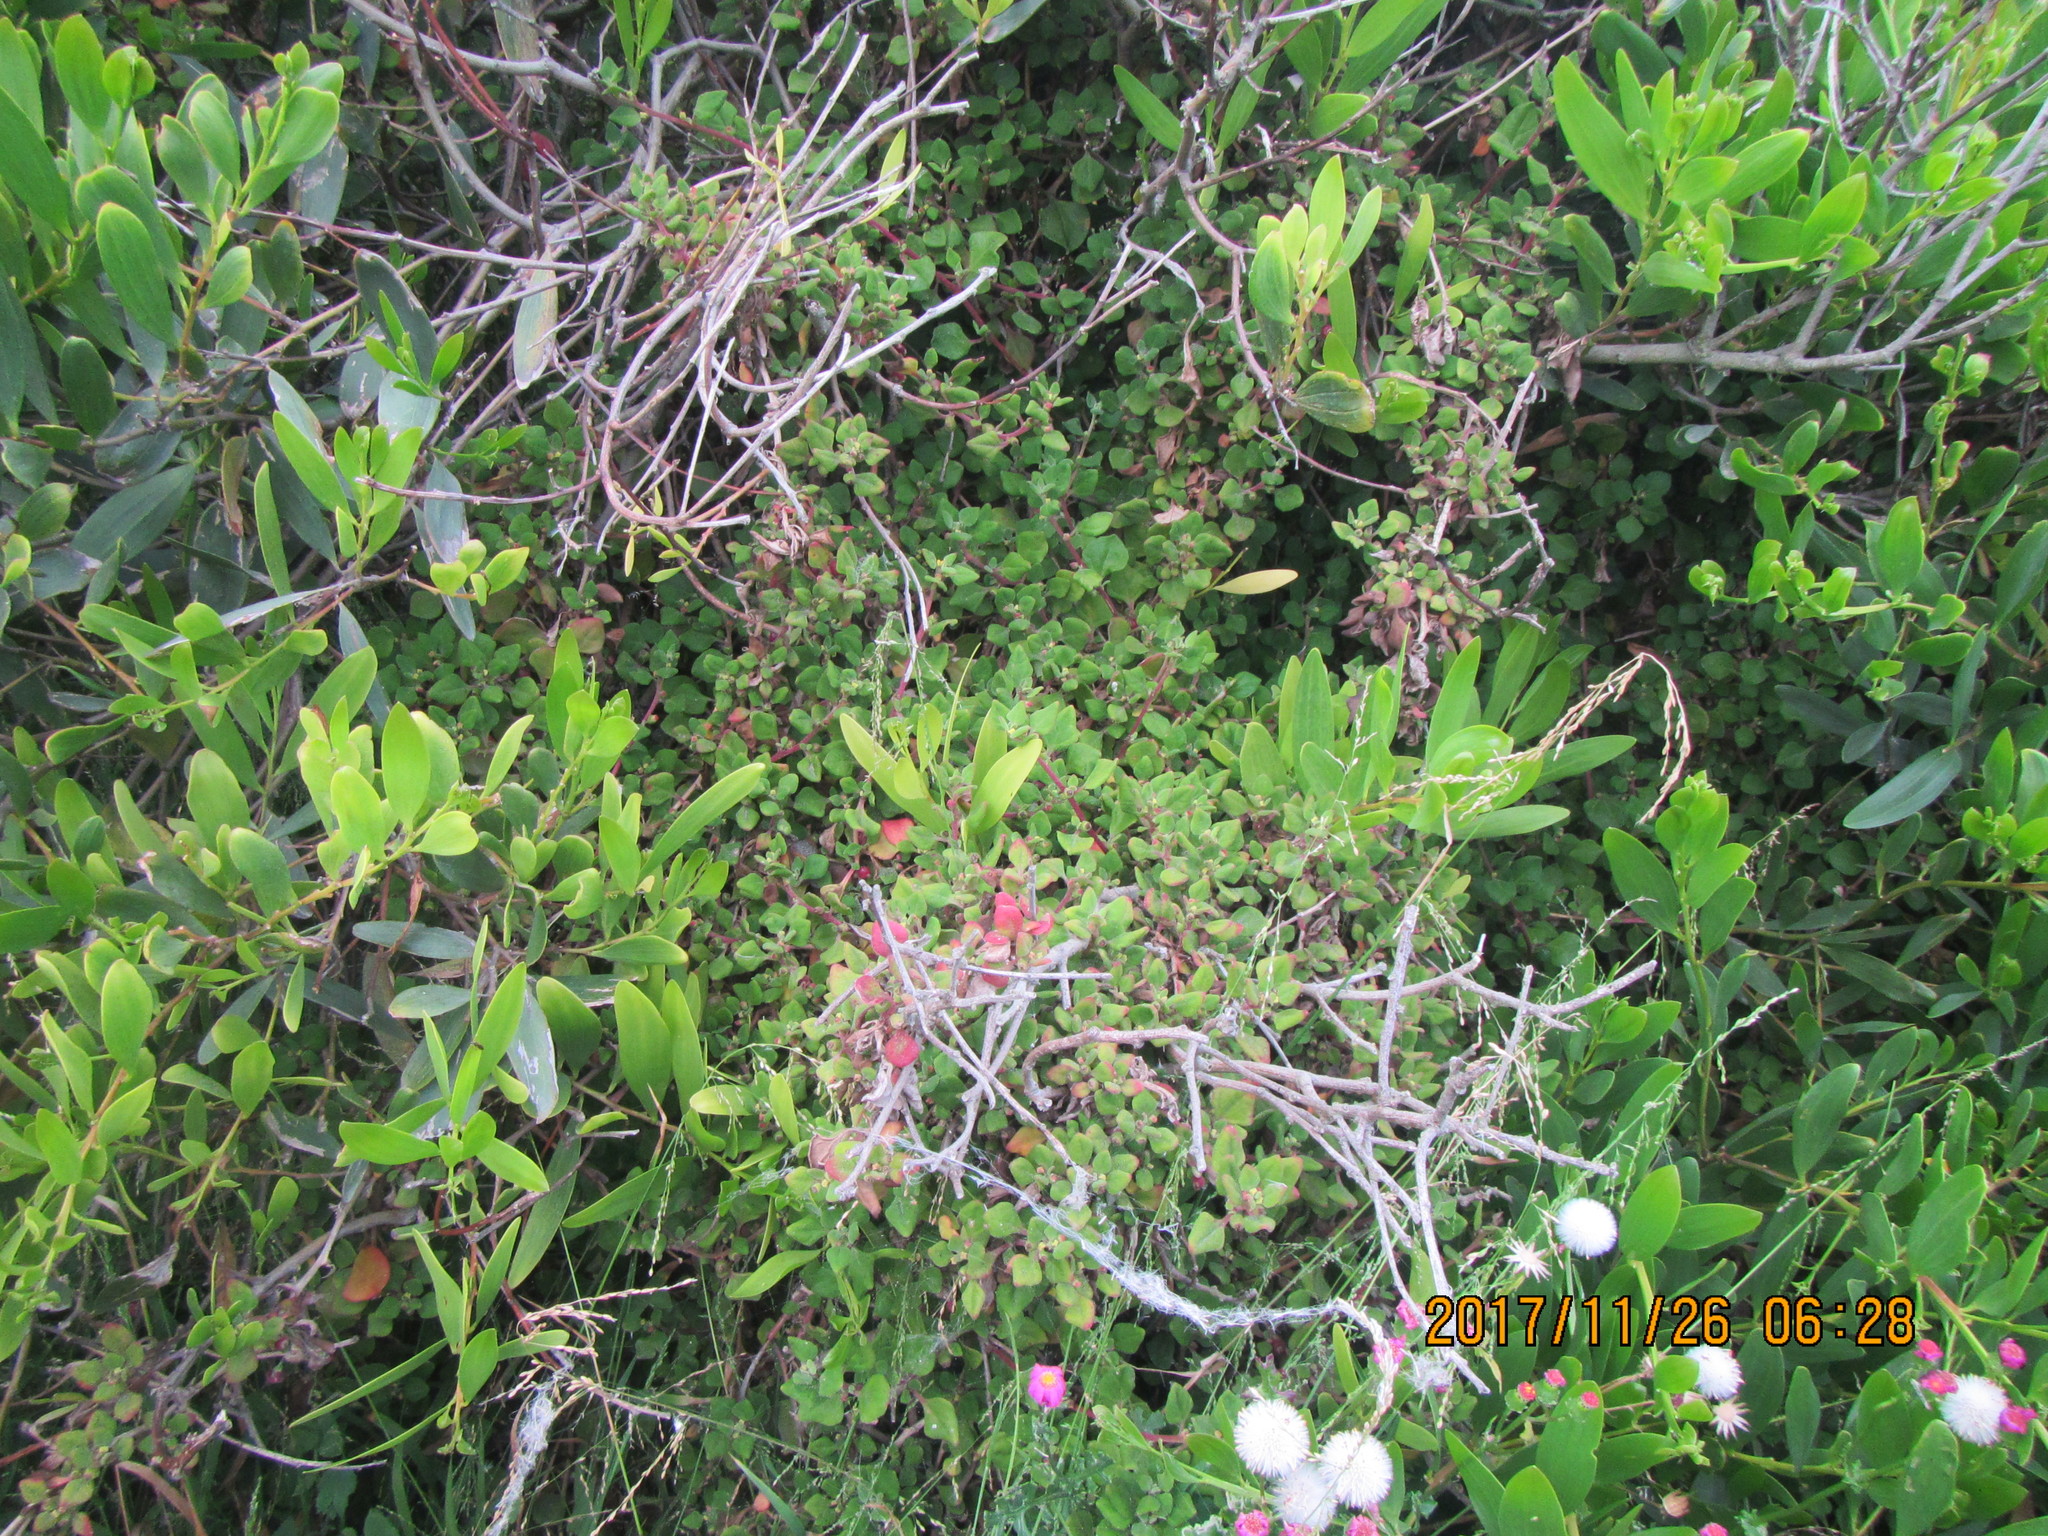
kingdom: Plantae
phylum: Tracheophyta
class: Magnoliopsida
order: Caryophyllales
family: Aizoaceae
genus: Tetragonia
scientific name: Tetragonia implexicoma
